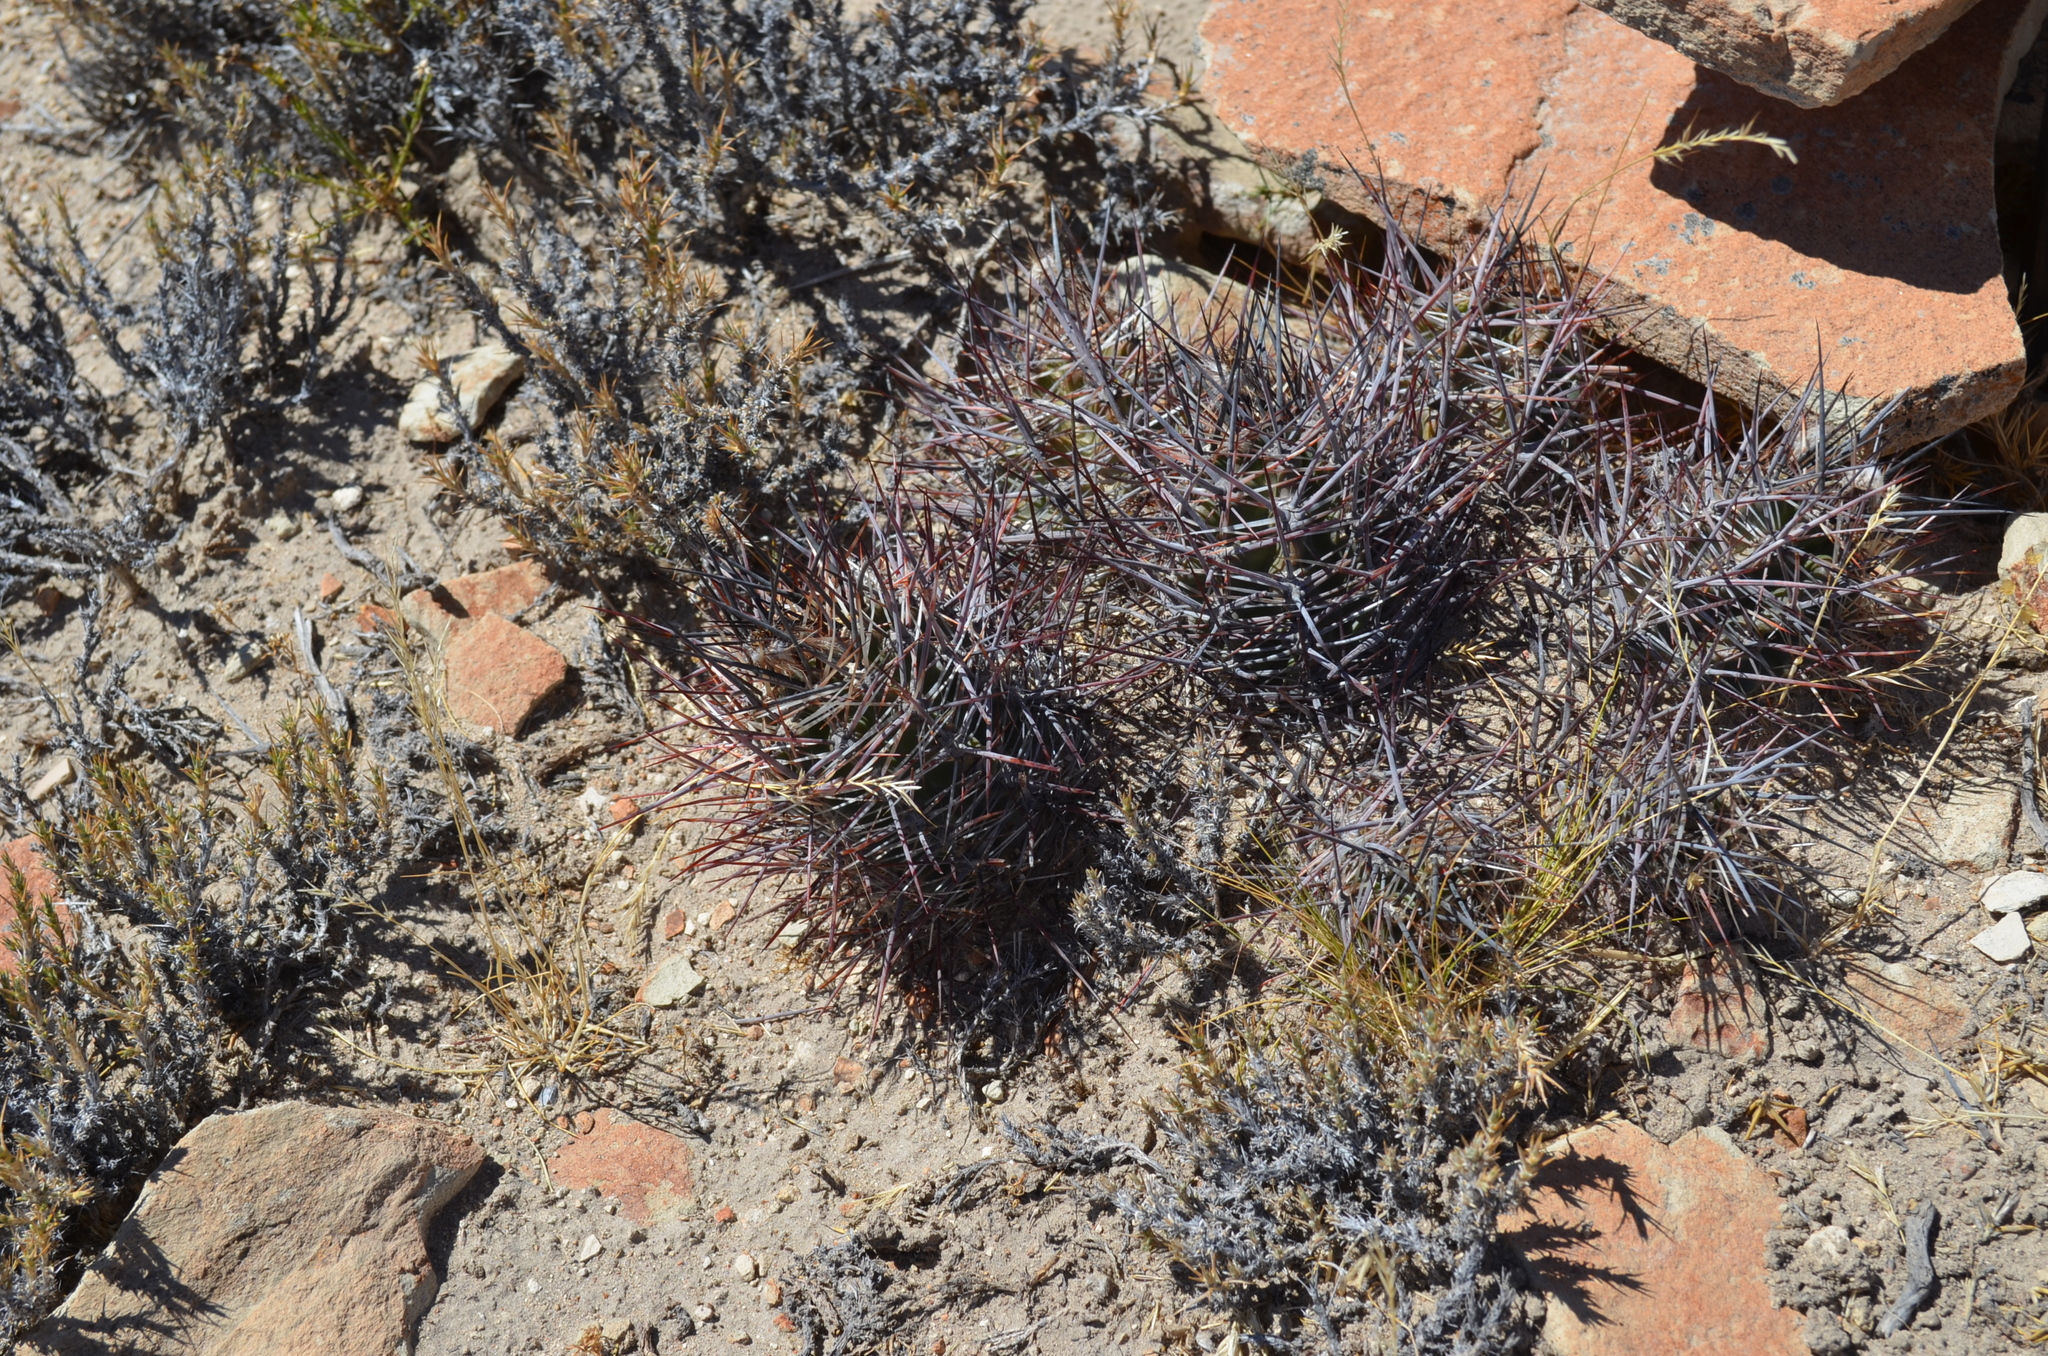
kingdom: Plantae
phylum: Tracheophyta
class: Magnoliopsida
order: Caryophyllales
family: Cactaceae
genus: Austrocactus
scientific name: Austrocactus bertinii
